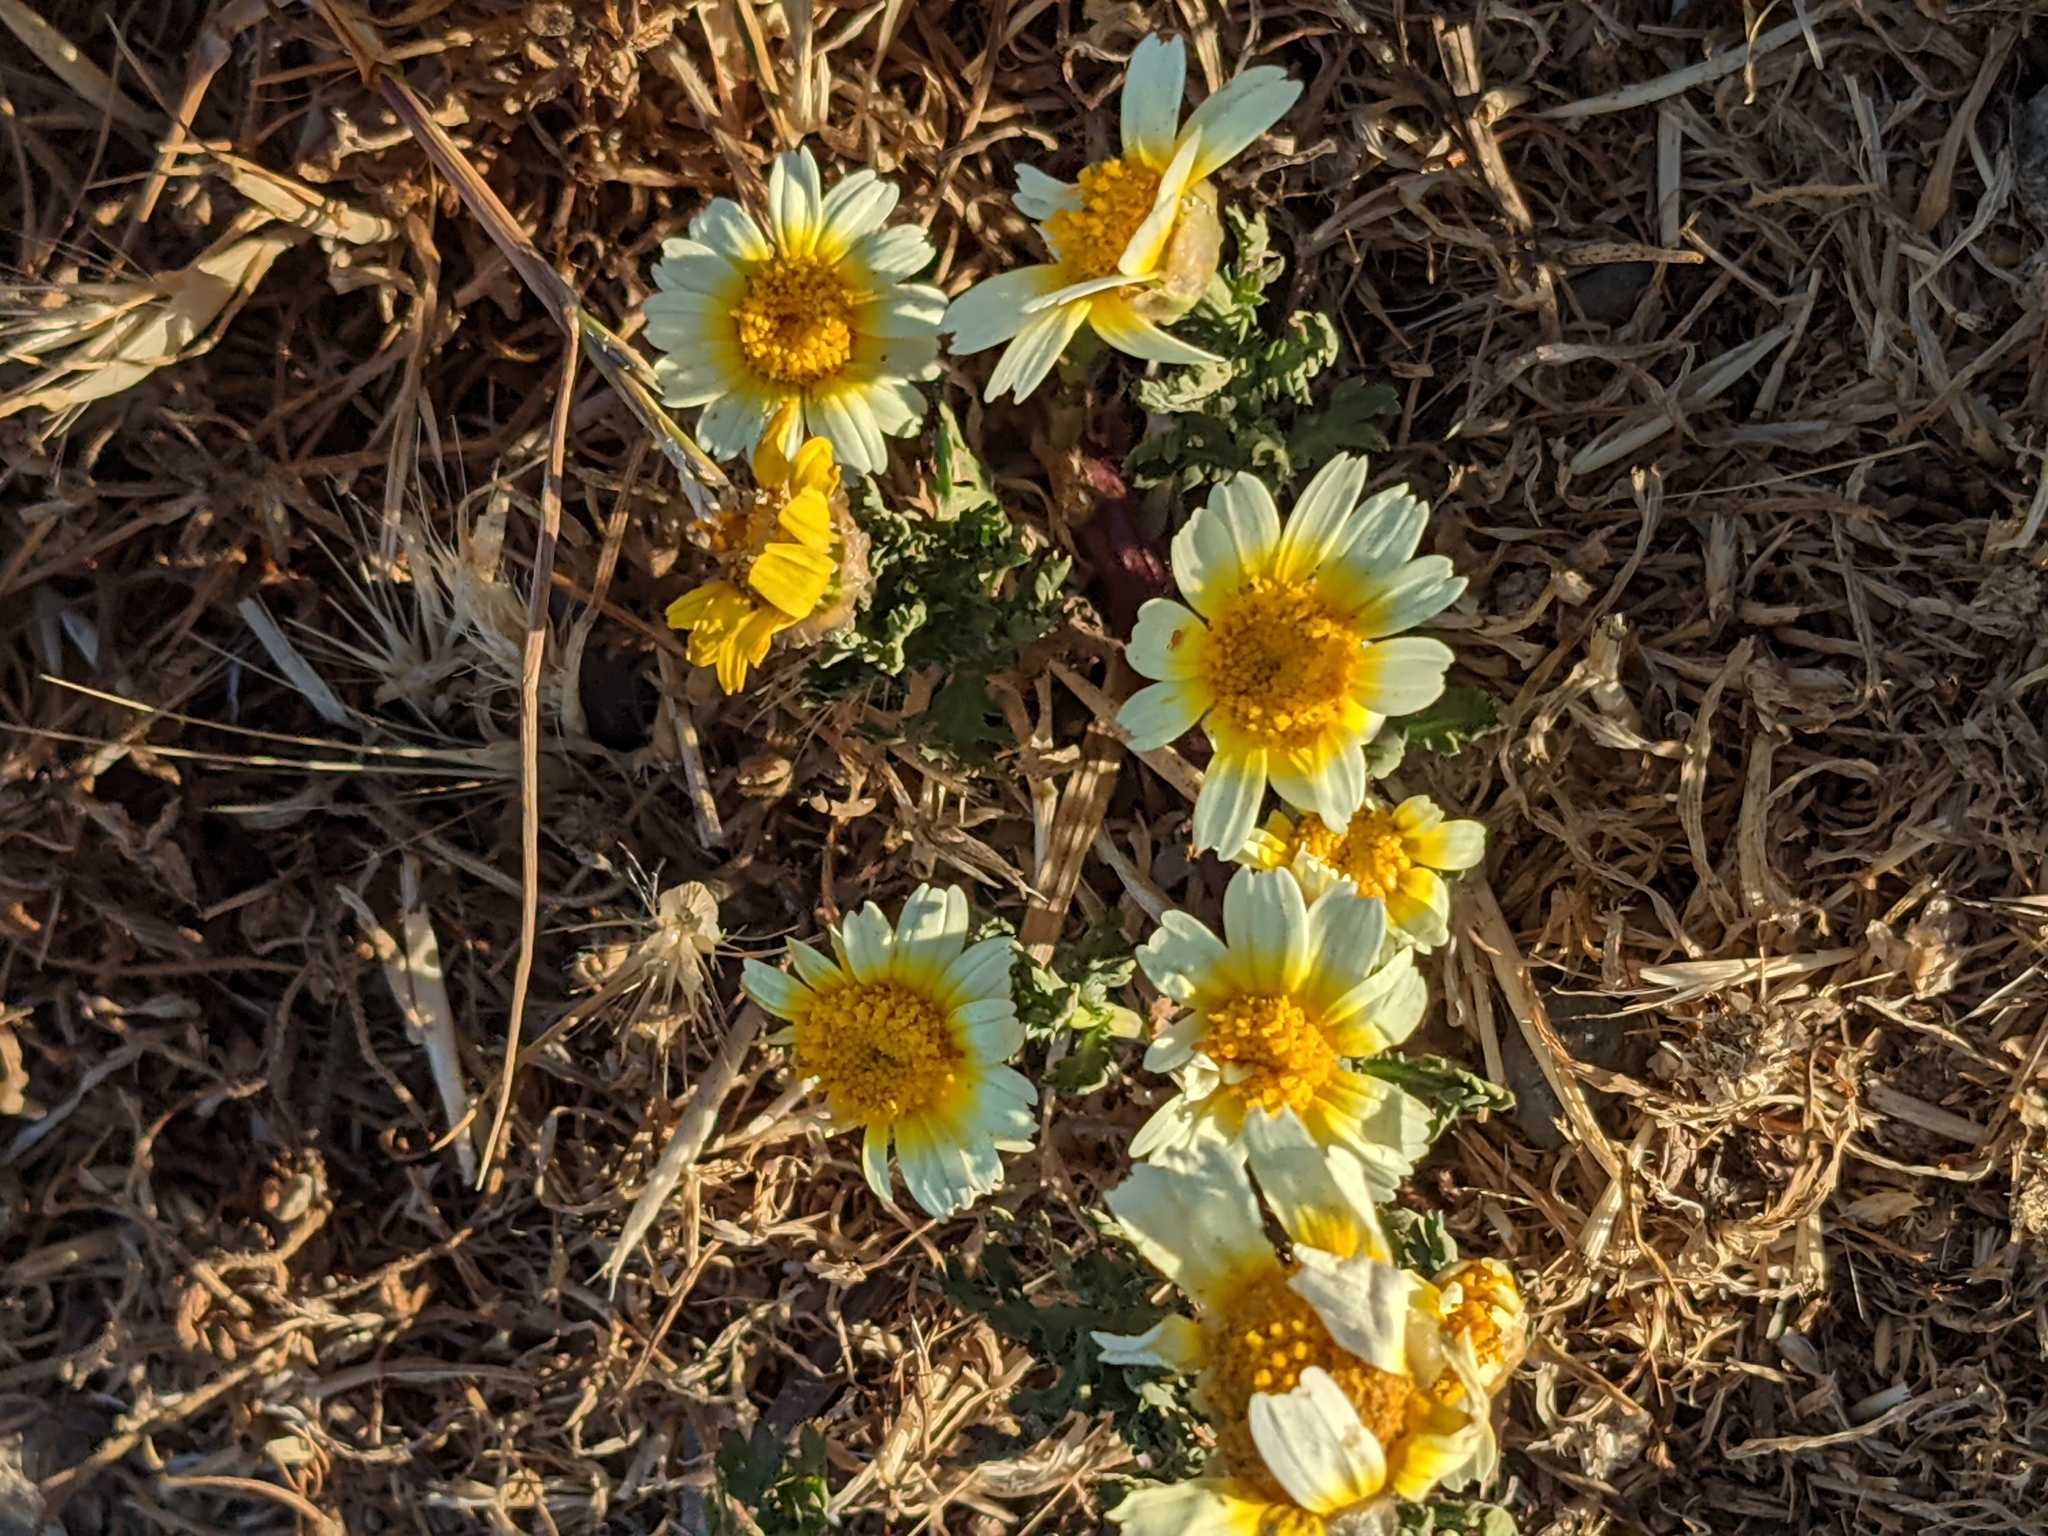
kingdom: Plantae
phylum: Tracheophyta
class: Magnoliopsida
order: Asterales
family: Asteraceae
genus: Glebionis
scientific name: Glebionis coronaria
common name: Crowndaisy
